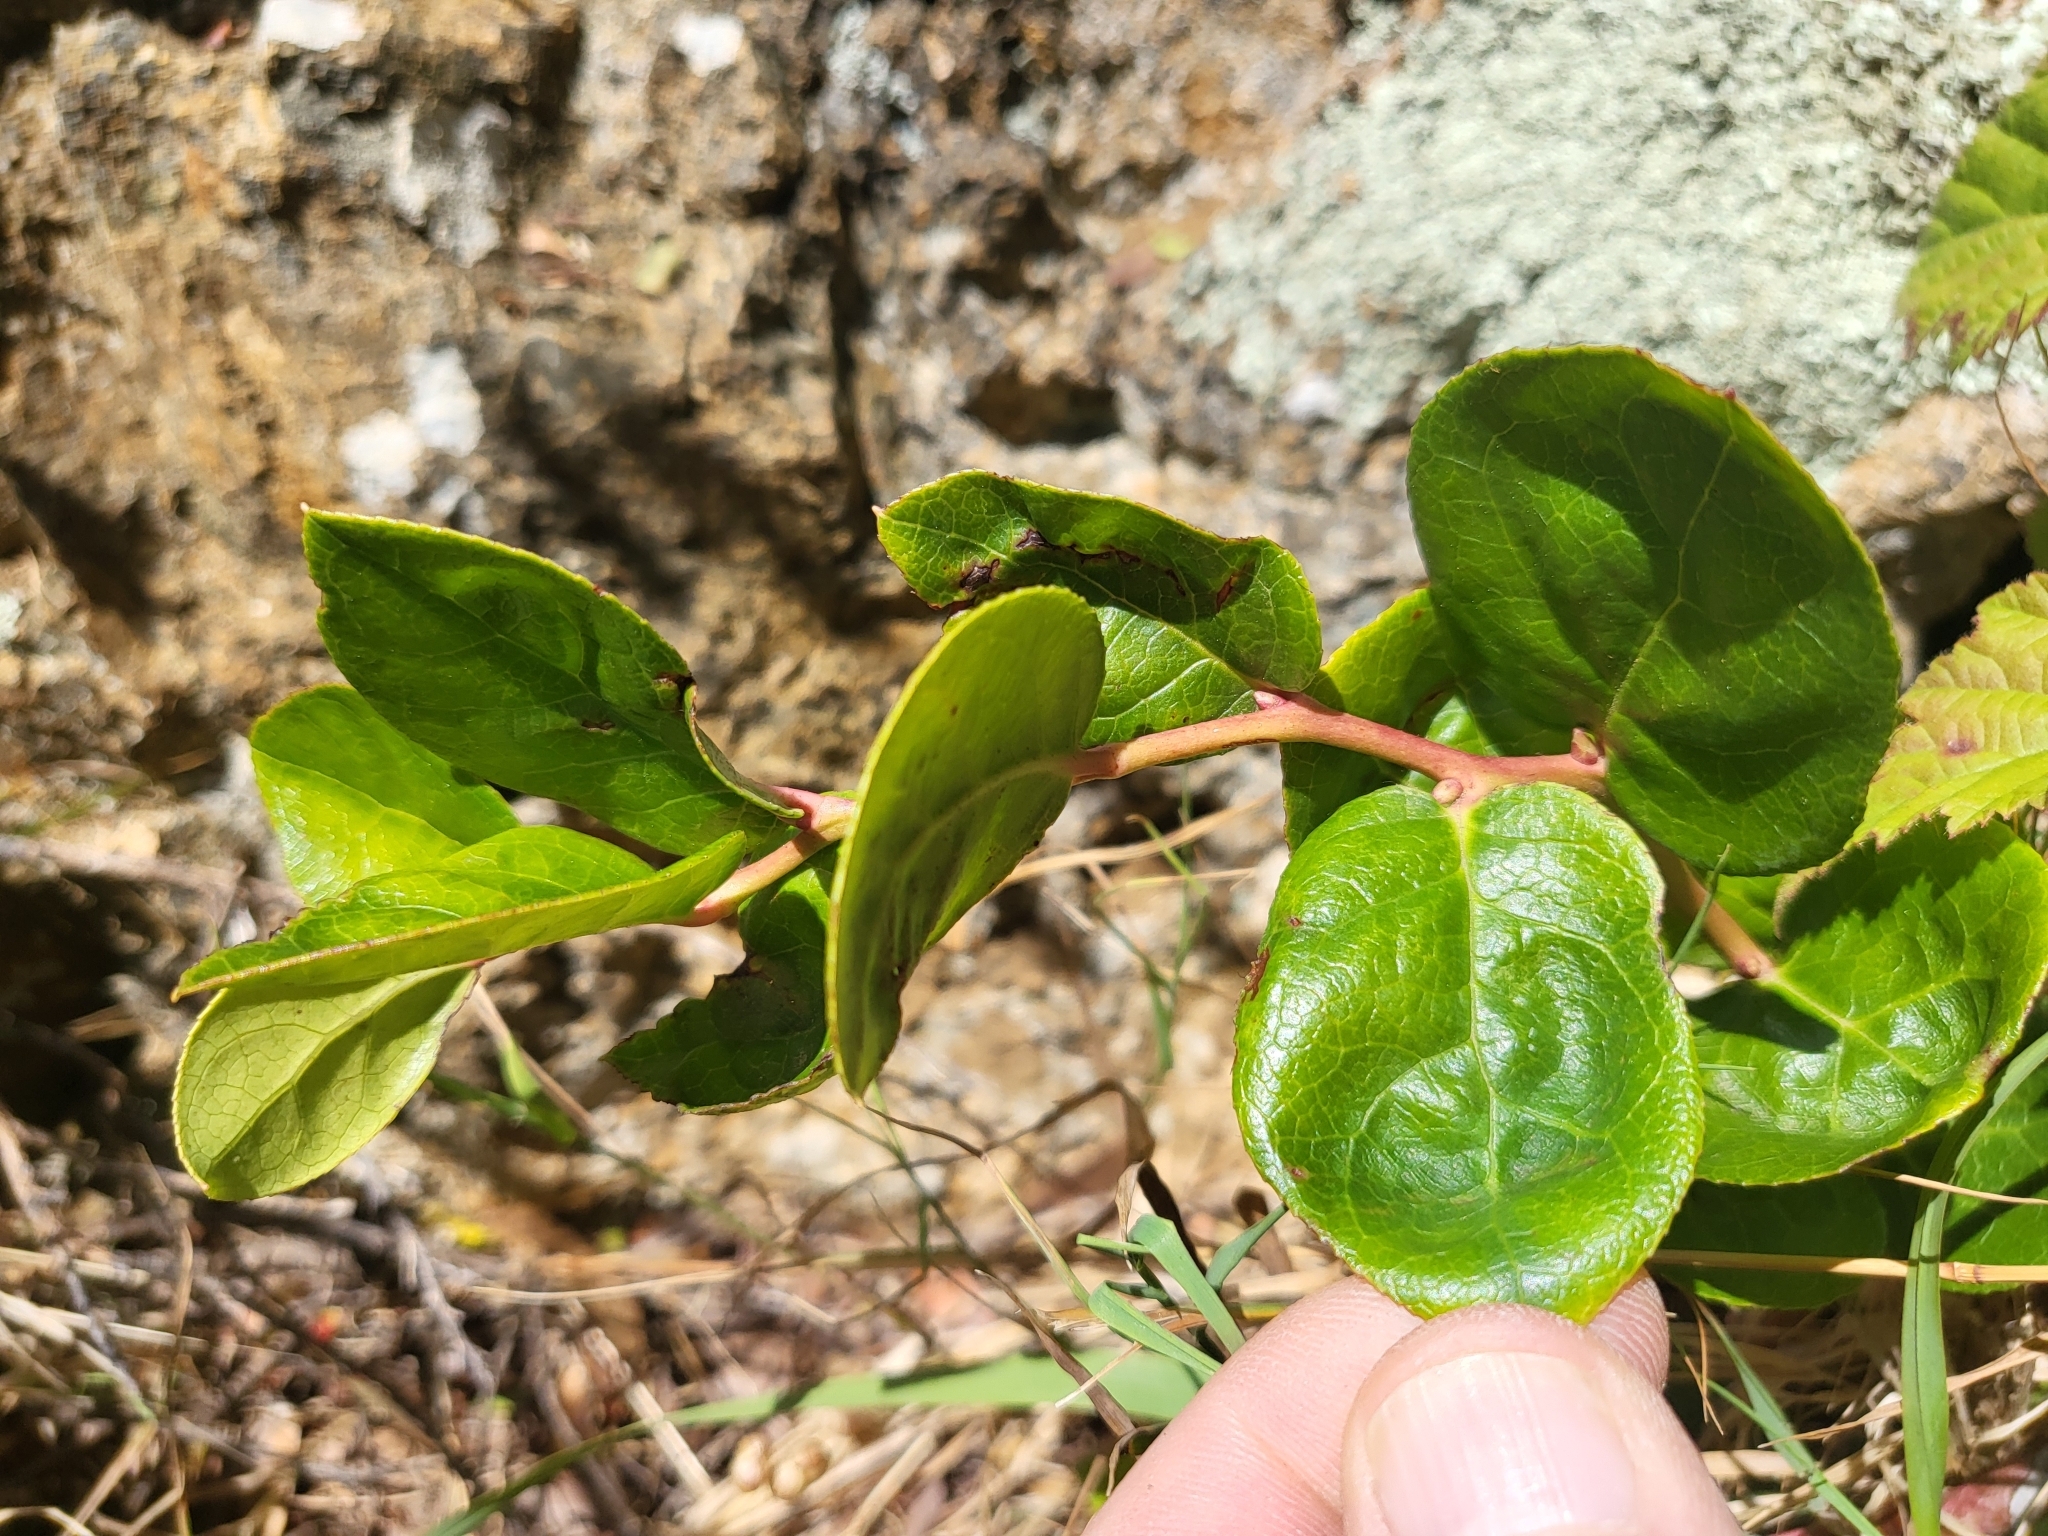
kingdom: Plantae
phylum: Tracheophyta
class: Magnoliopsida
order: Ericales
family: Ericaceae
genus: Gaultheria
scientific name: Gaultheria shallon
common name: Shallon
